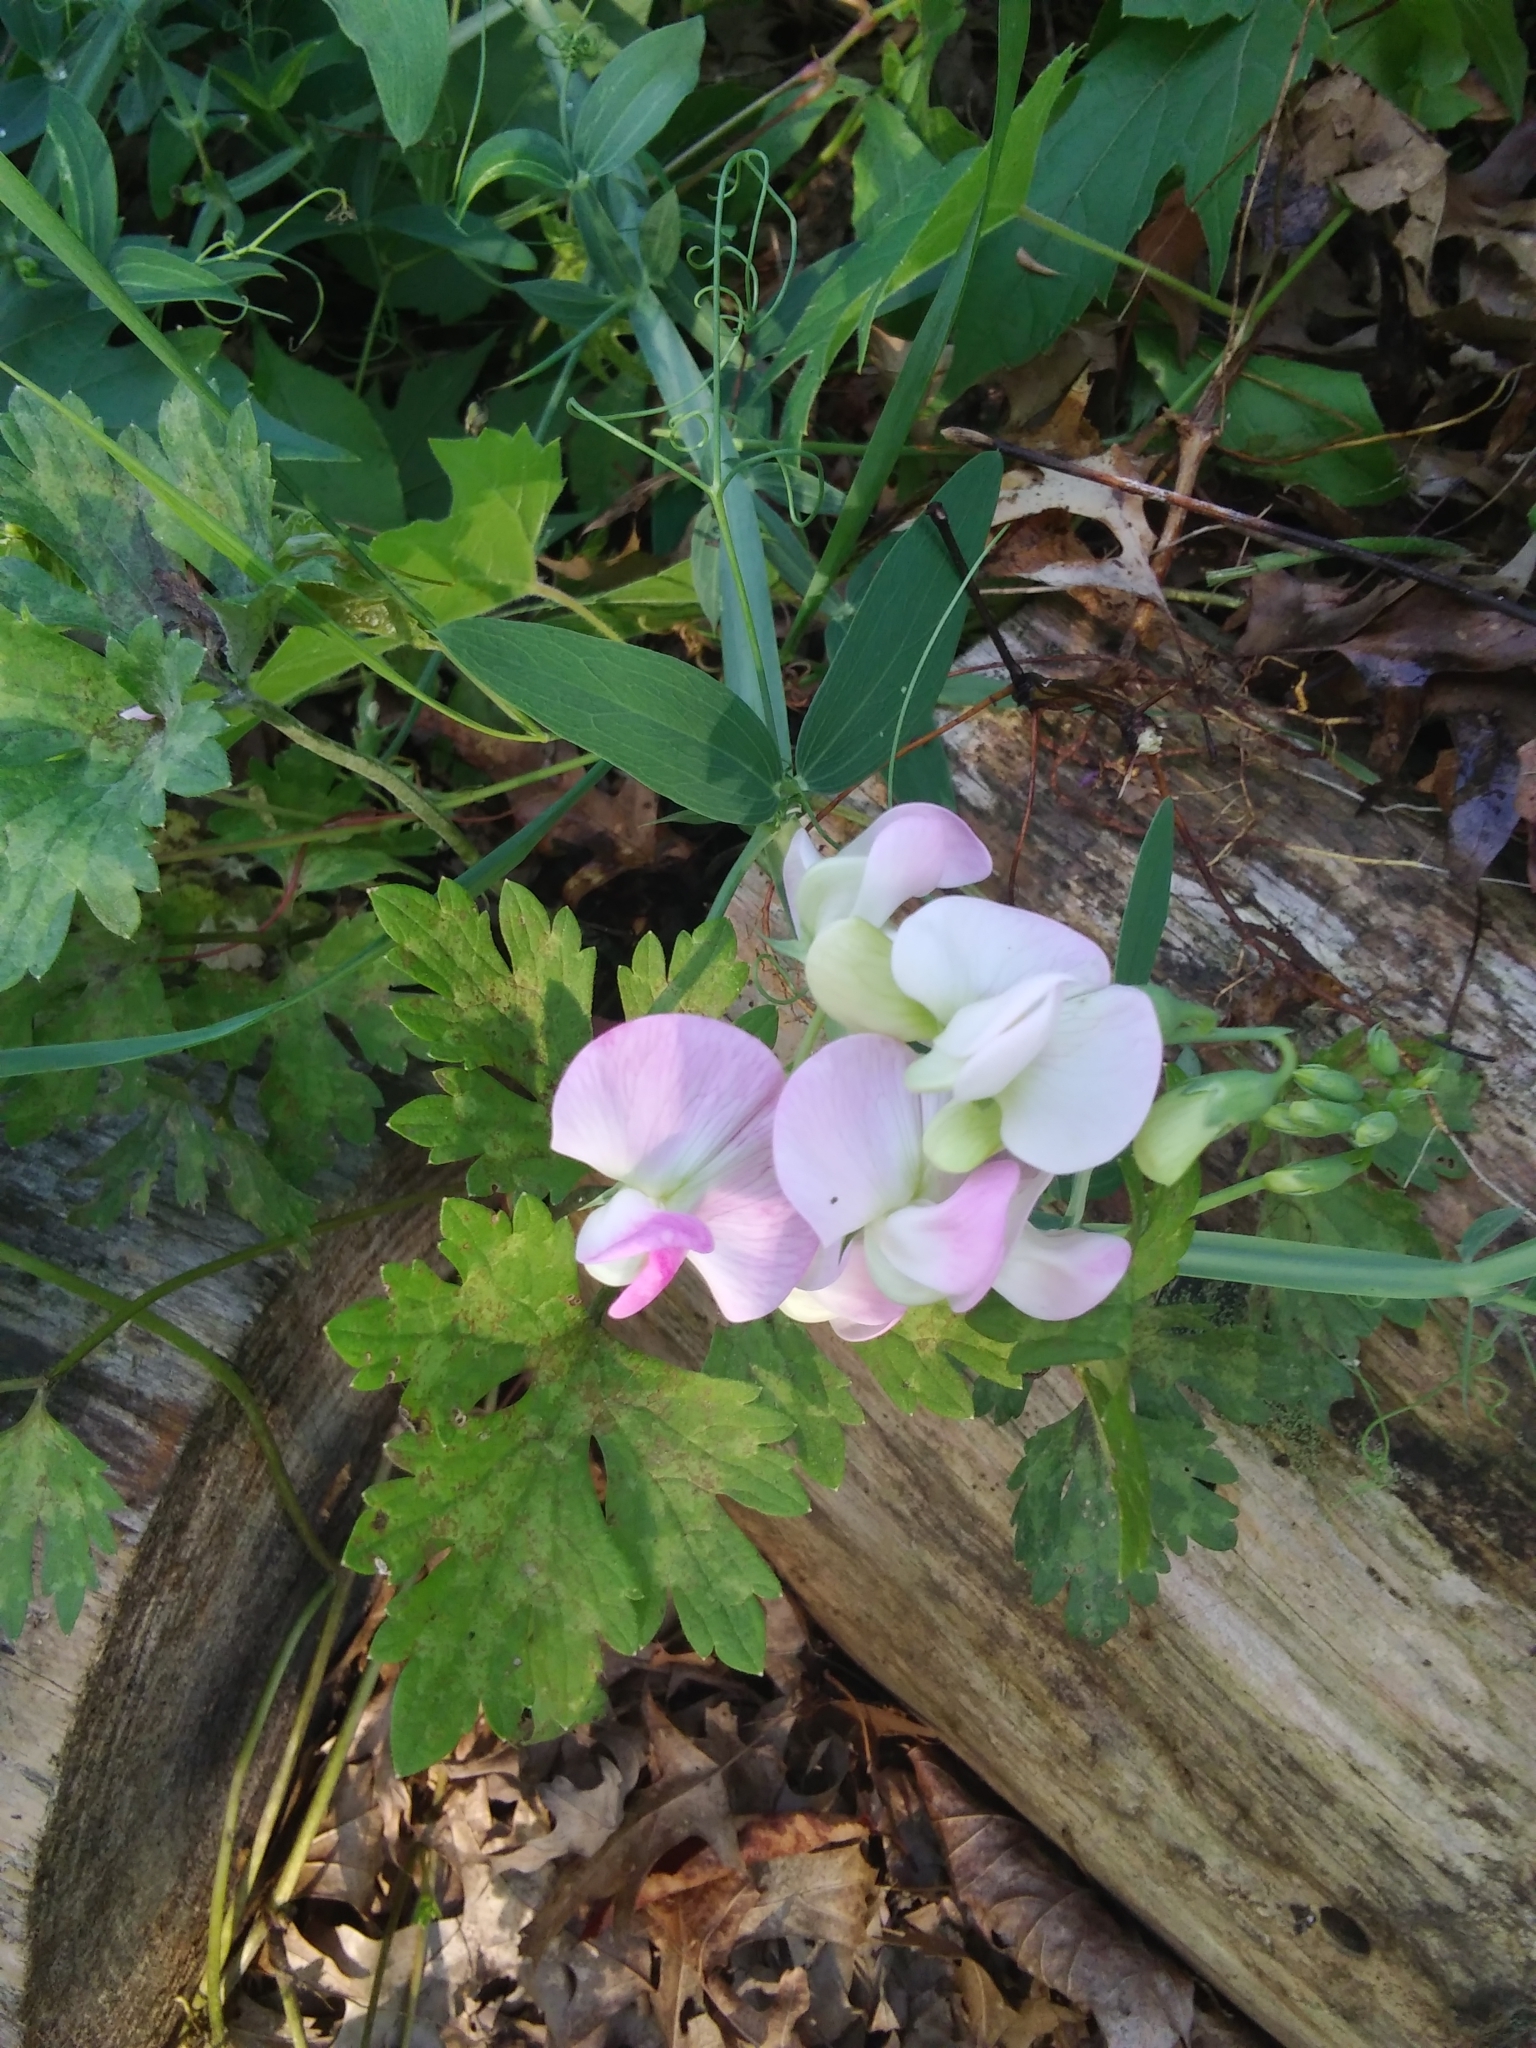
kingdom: Plantae
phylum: Tracheophyta
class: Magnoliopsida
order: Fabales
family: Fabaceae
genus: Lathyrus
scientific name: Lathyrus latifolius
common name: Perennial pea
